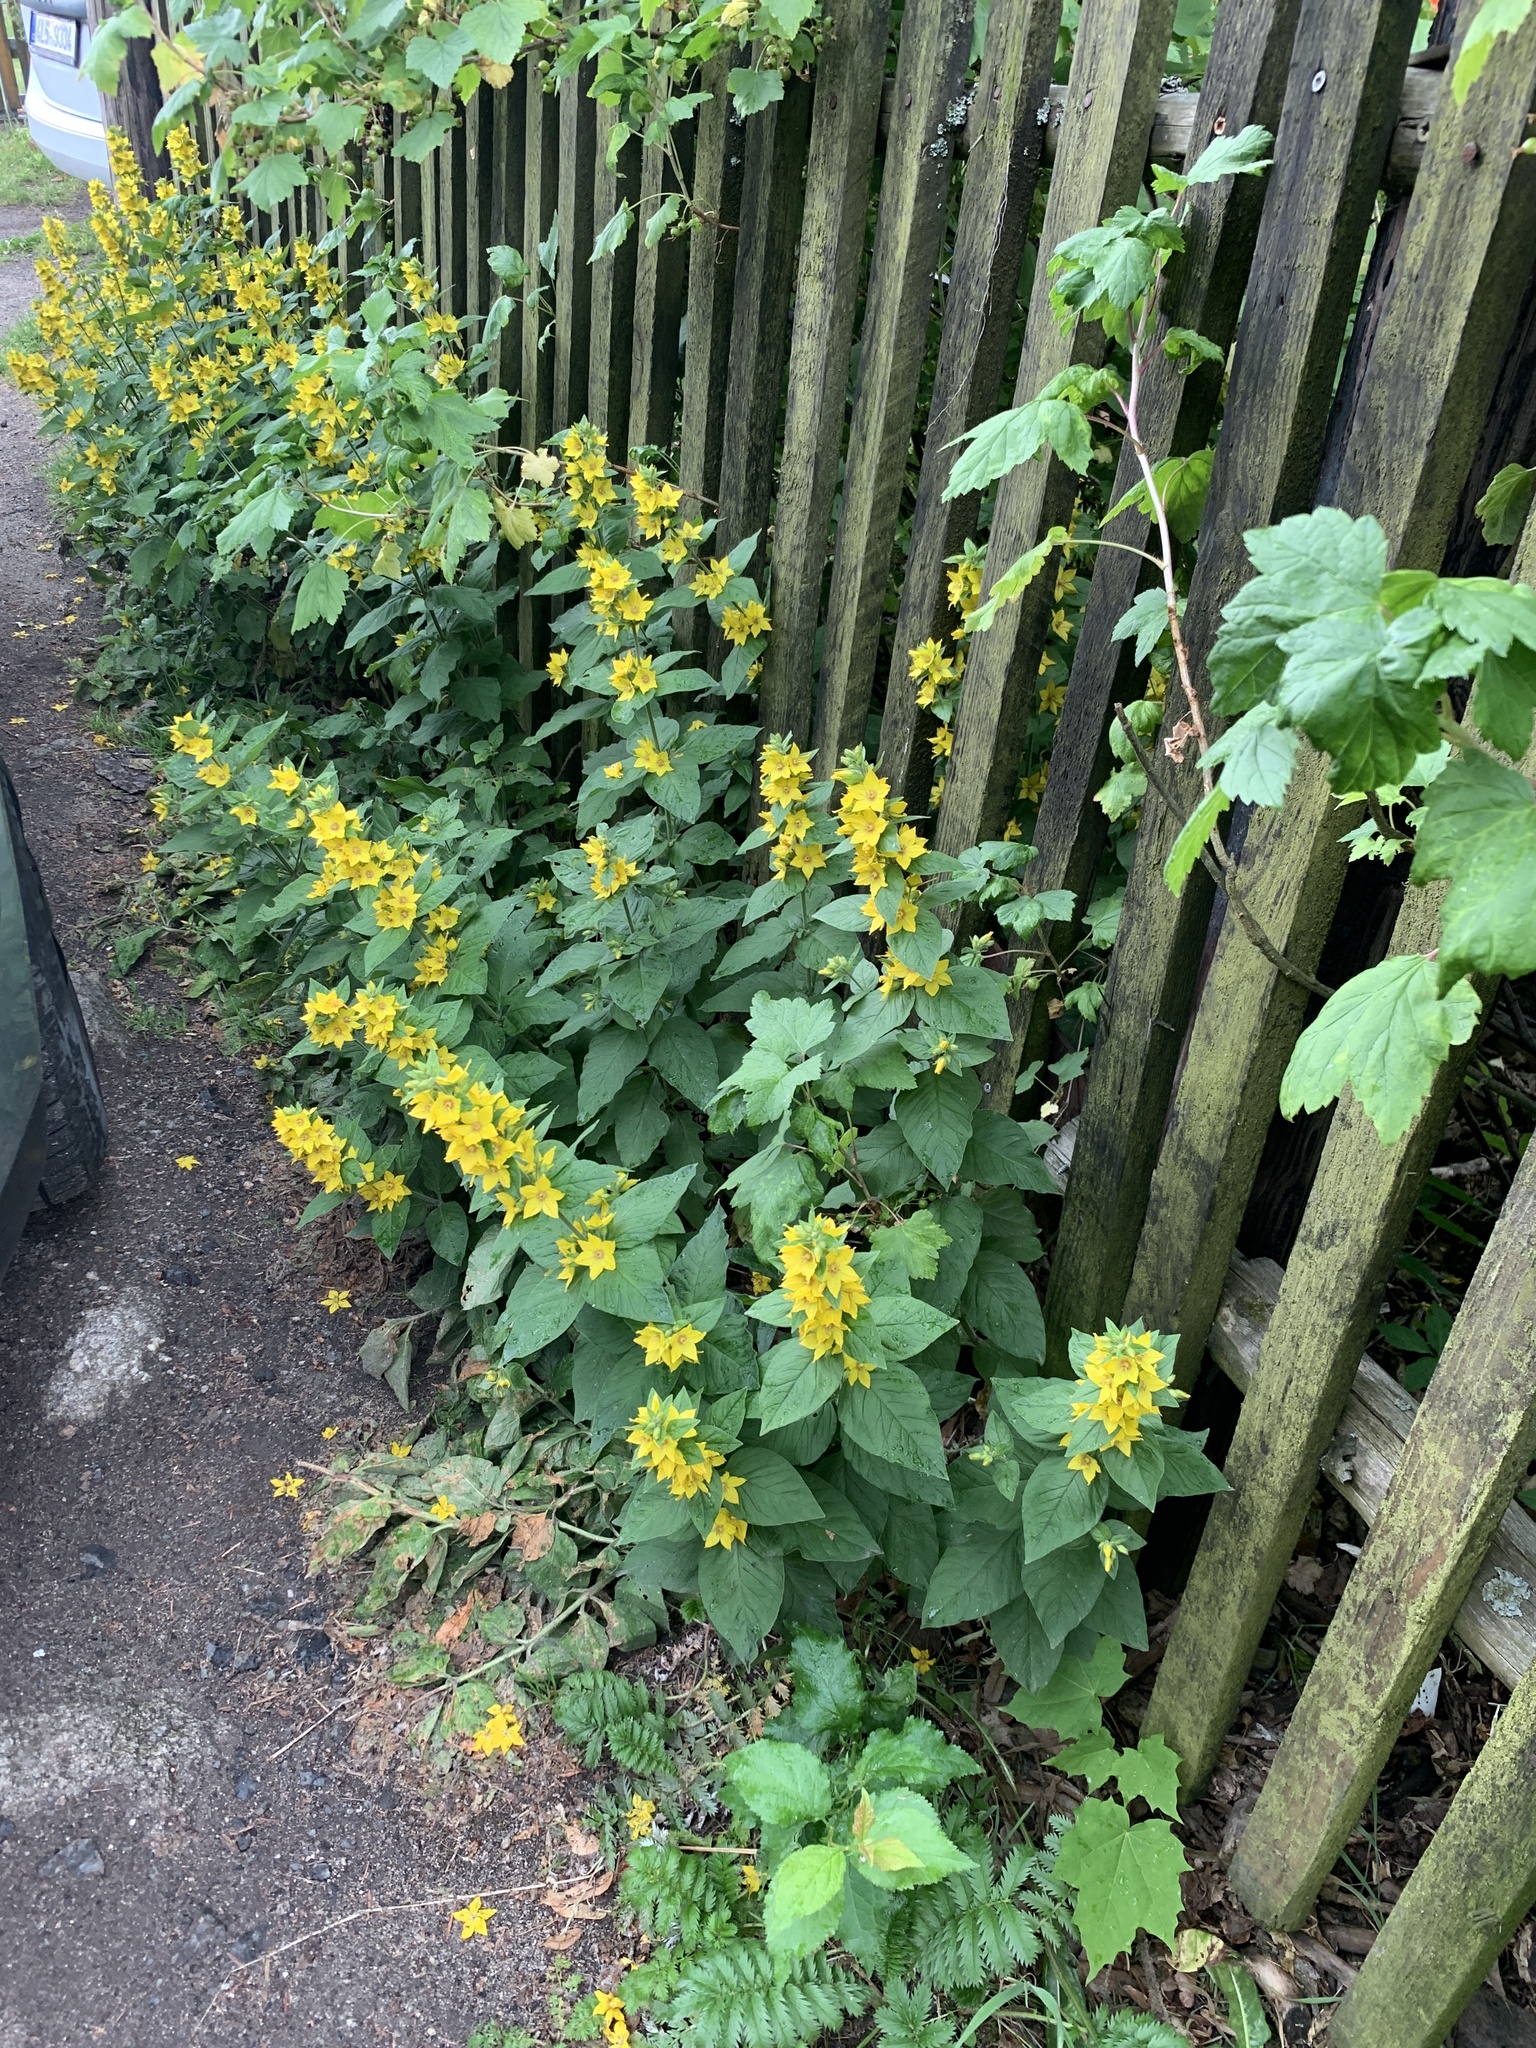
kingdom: Plantae
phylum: Tracheophyta
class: Magnoliopsida
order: Ericales
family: Primulaceae
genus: Lysimachia
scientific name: Lysimachia punctata
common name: Dotted loosestrife
